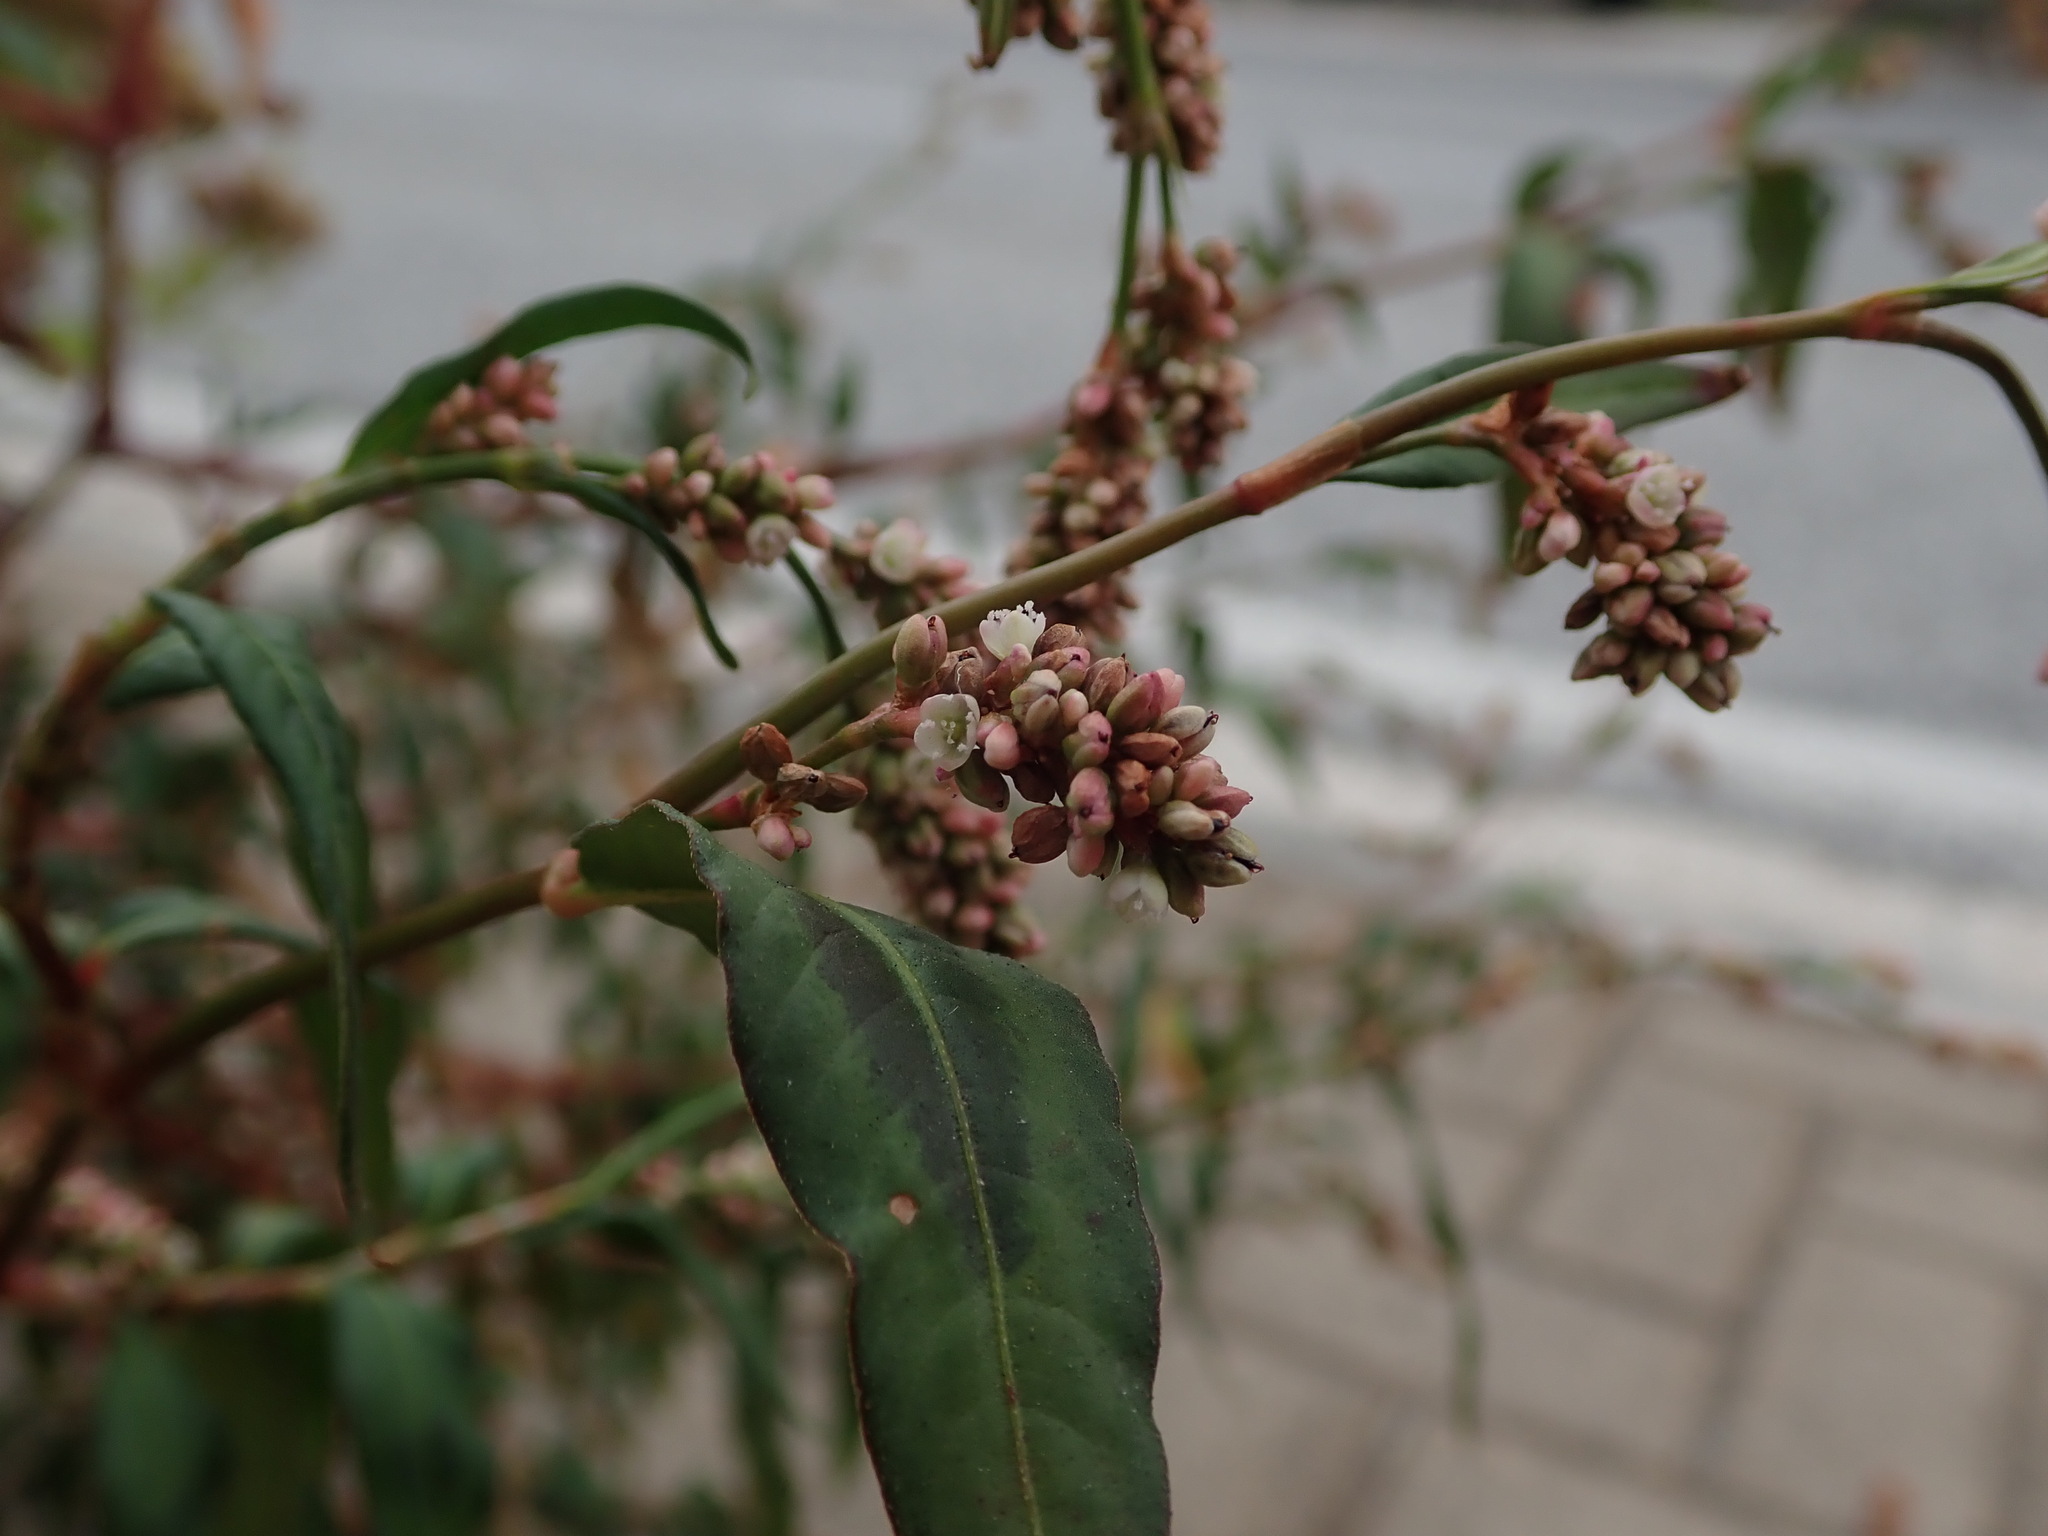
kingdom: Plantae
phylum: Tracheophyta
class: Magnoliopsida
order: Caryophyllales
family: Polygonaceae
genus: Persicaria
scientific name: Persicaria maculosa
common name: Redshank
